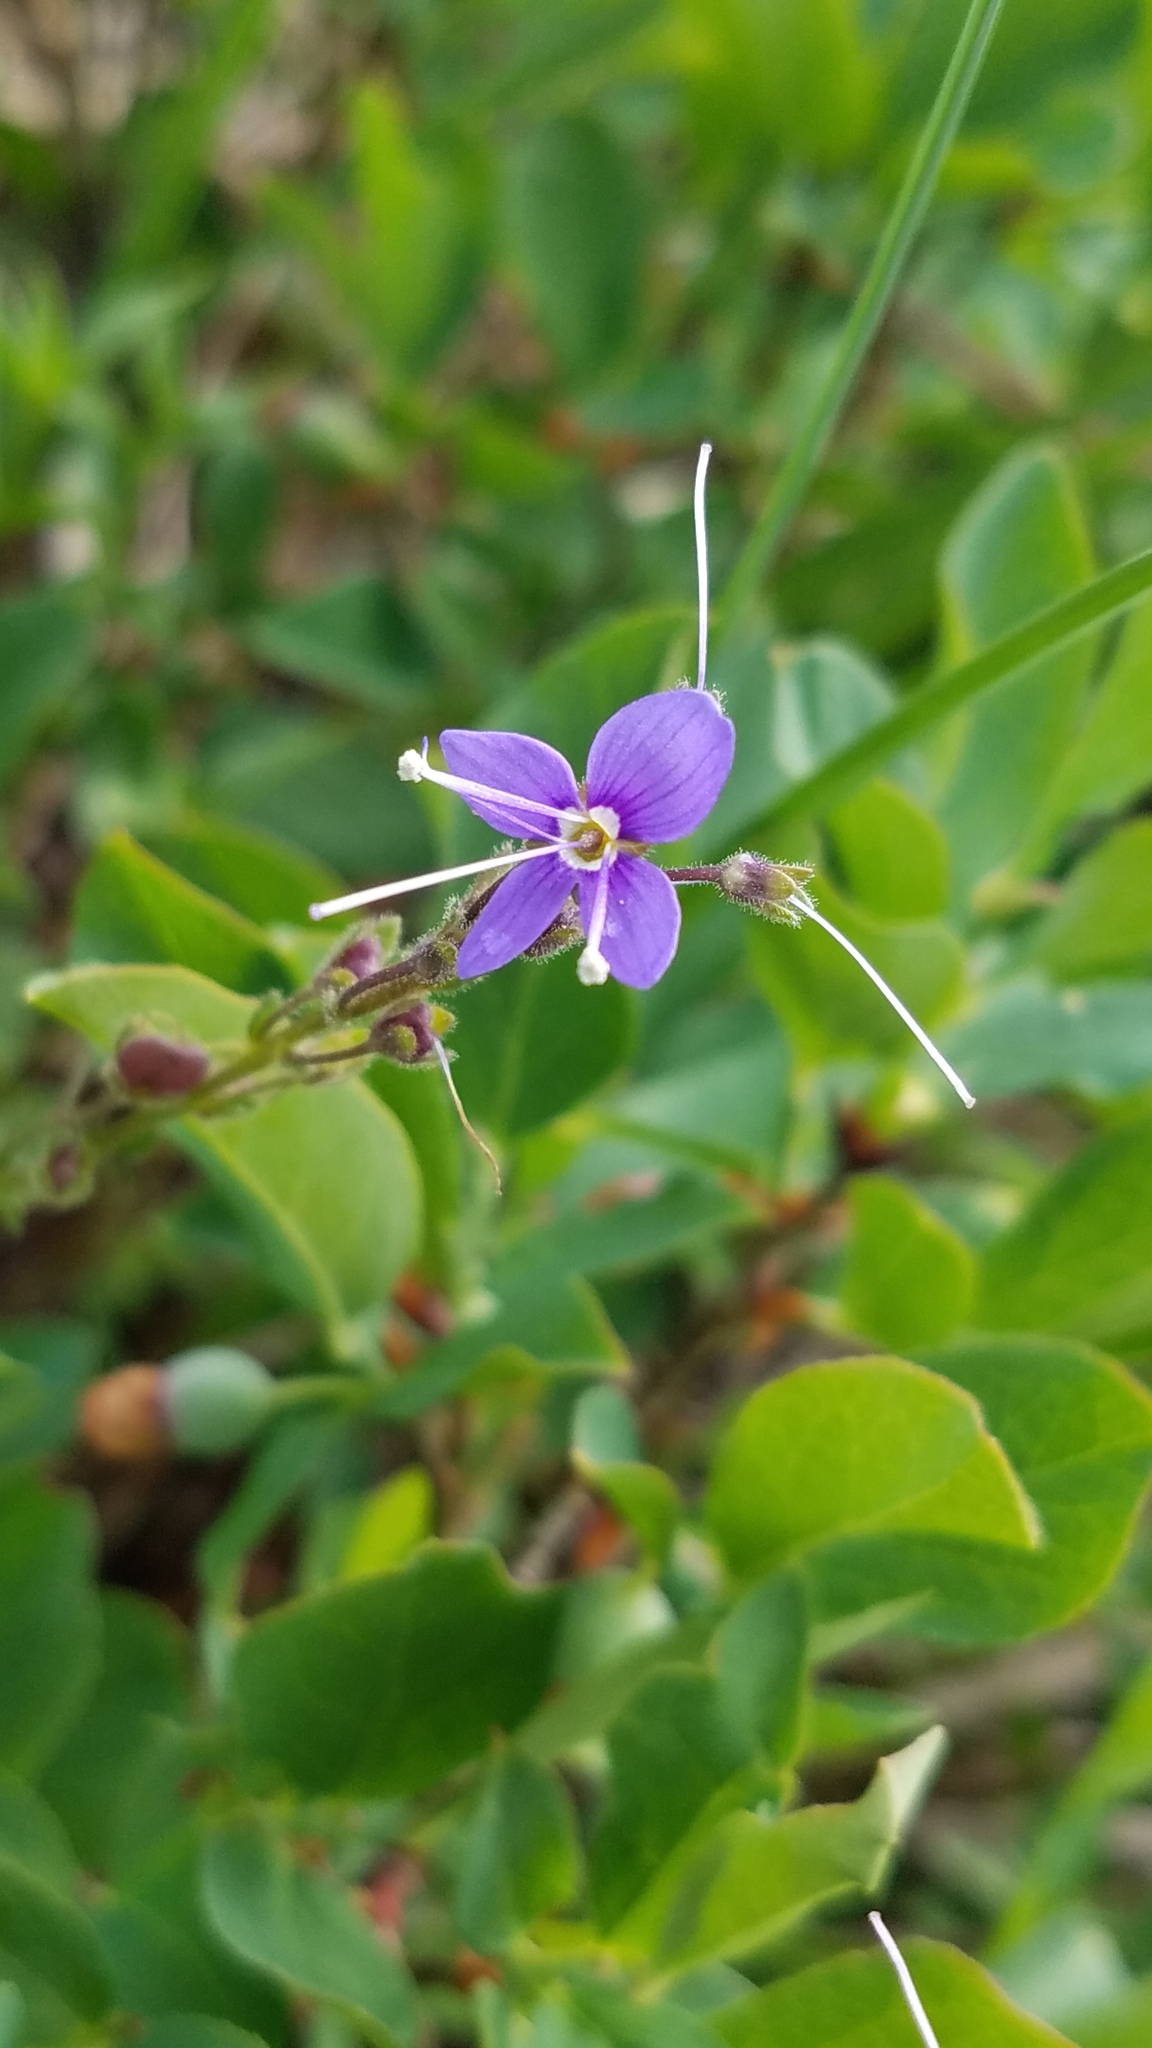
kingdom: Plantae
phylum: Tracheophyta
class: Magnoliopsida
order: Lamiales
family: Plantaginaceae
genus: Veronica
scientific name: Veronica cusickii
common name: Cusick's speedwell
